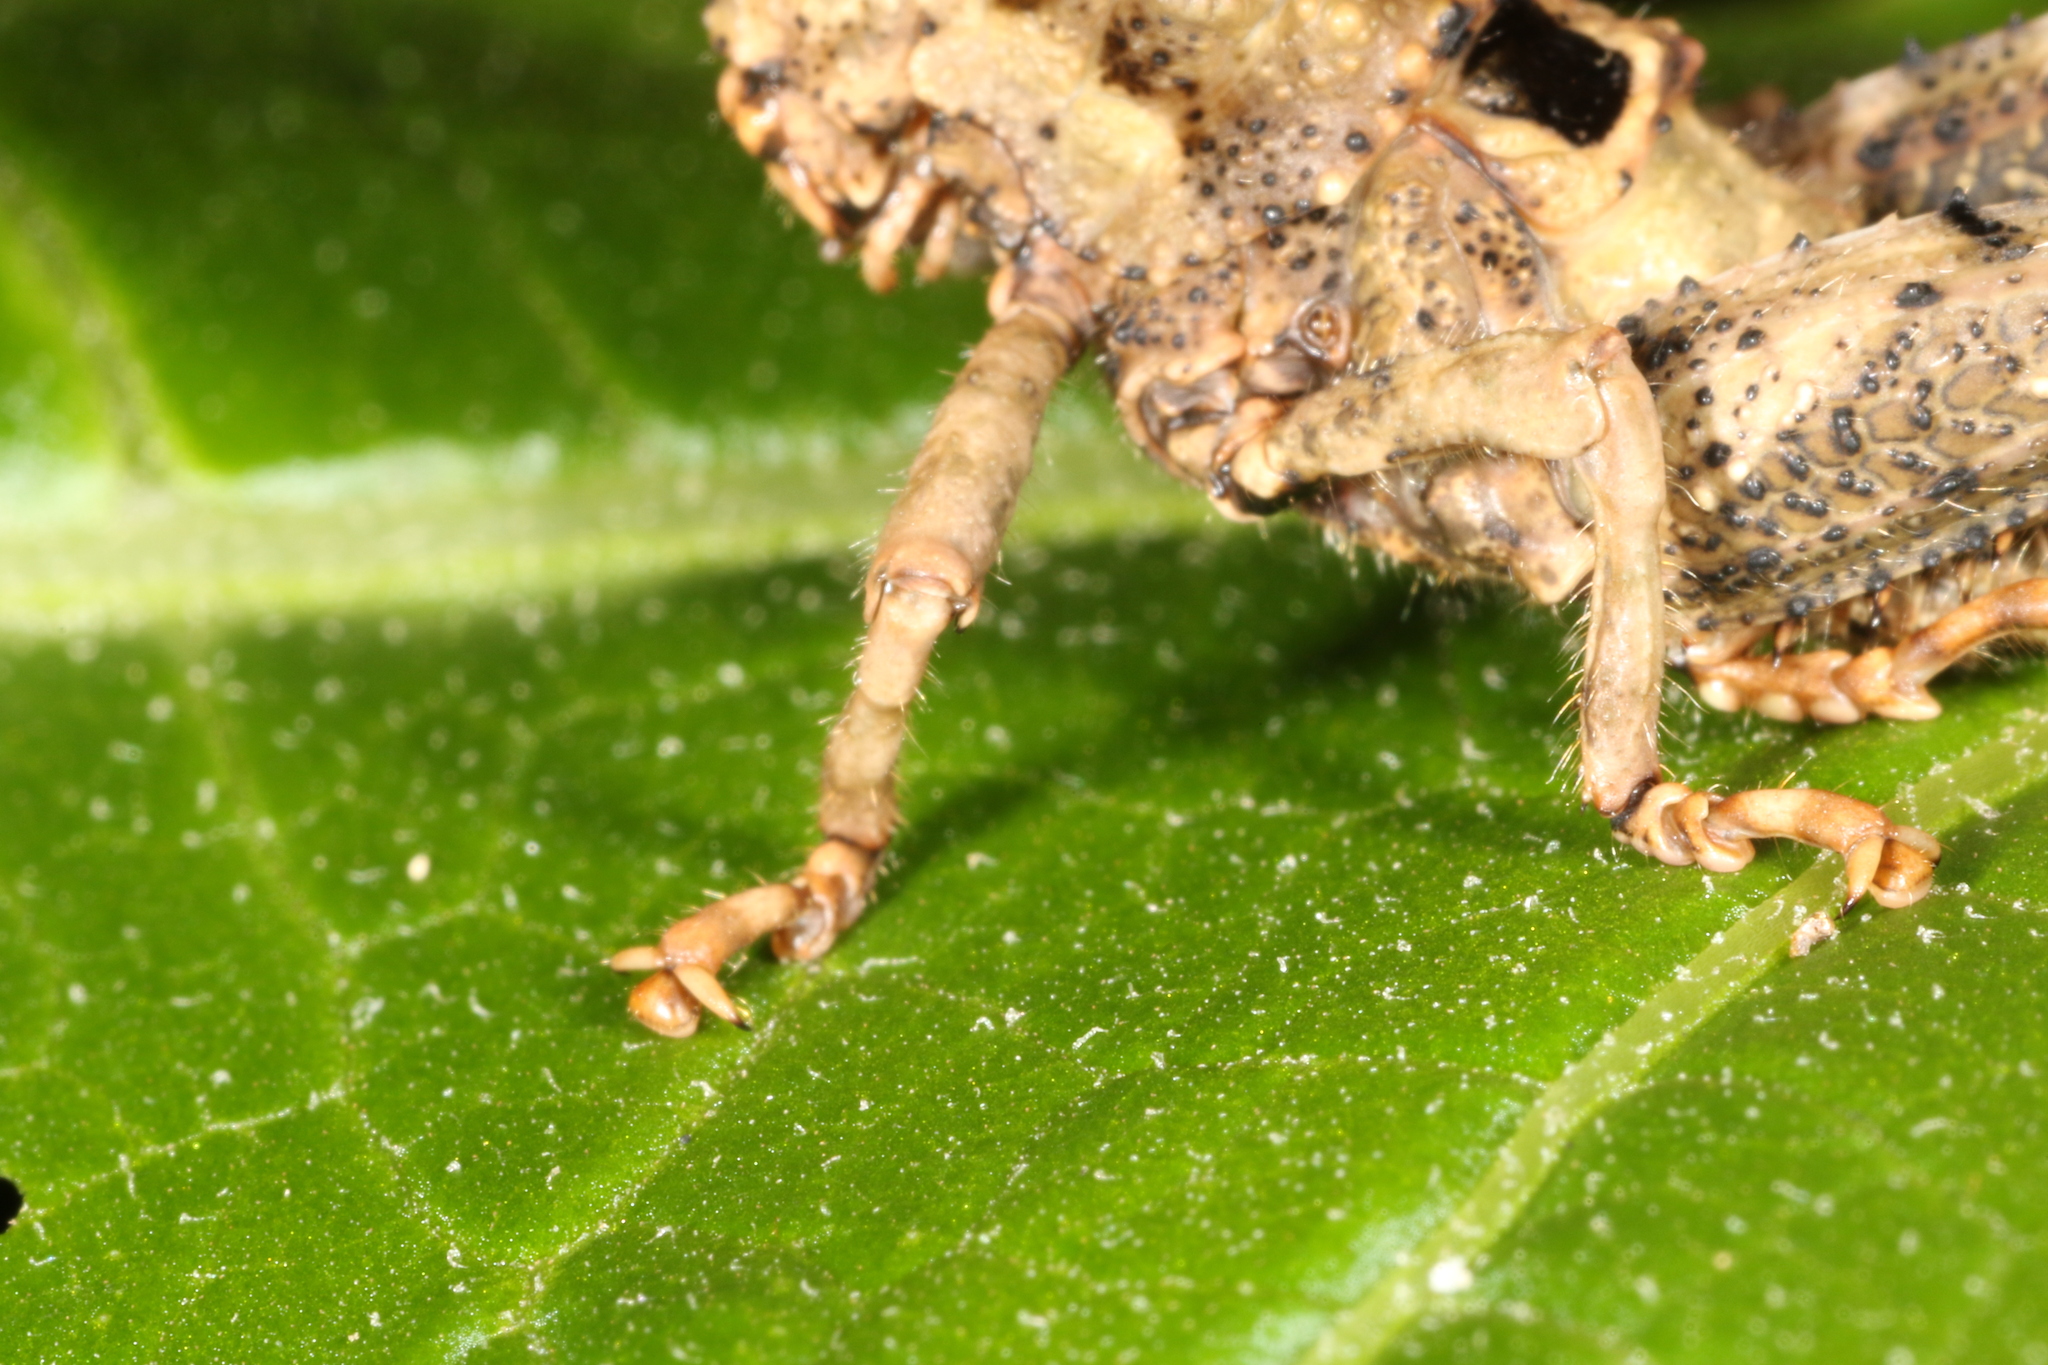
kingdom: Animalia
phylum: Arthropoda
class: Insecta
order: Orthoptera
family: Acrididae
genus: Pycnosarcus
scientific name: Pycnosarcus atavus
